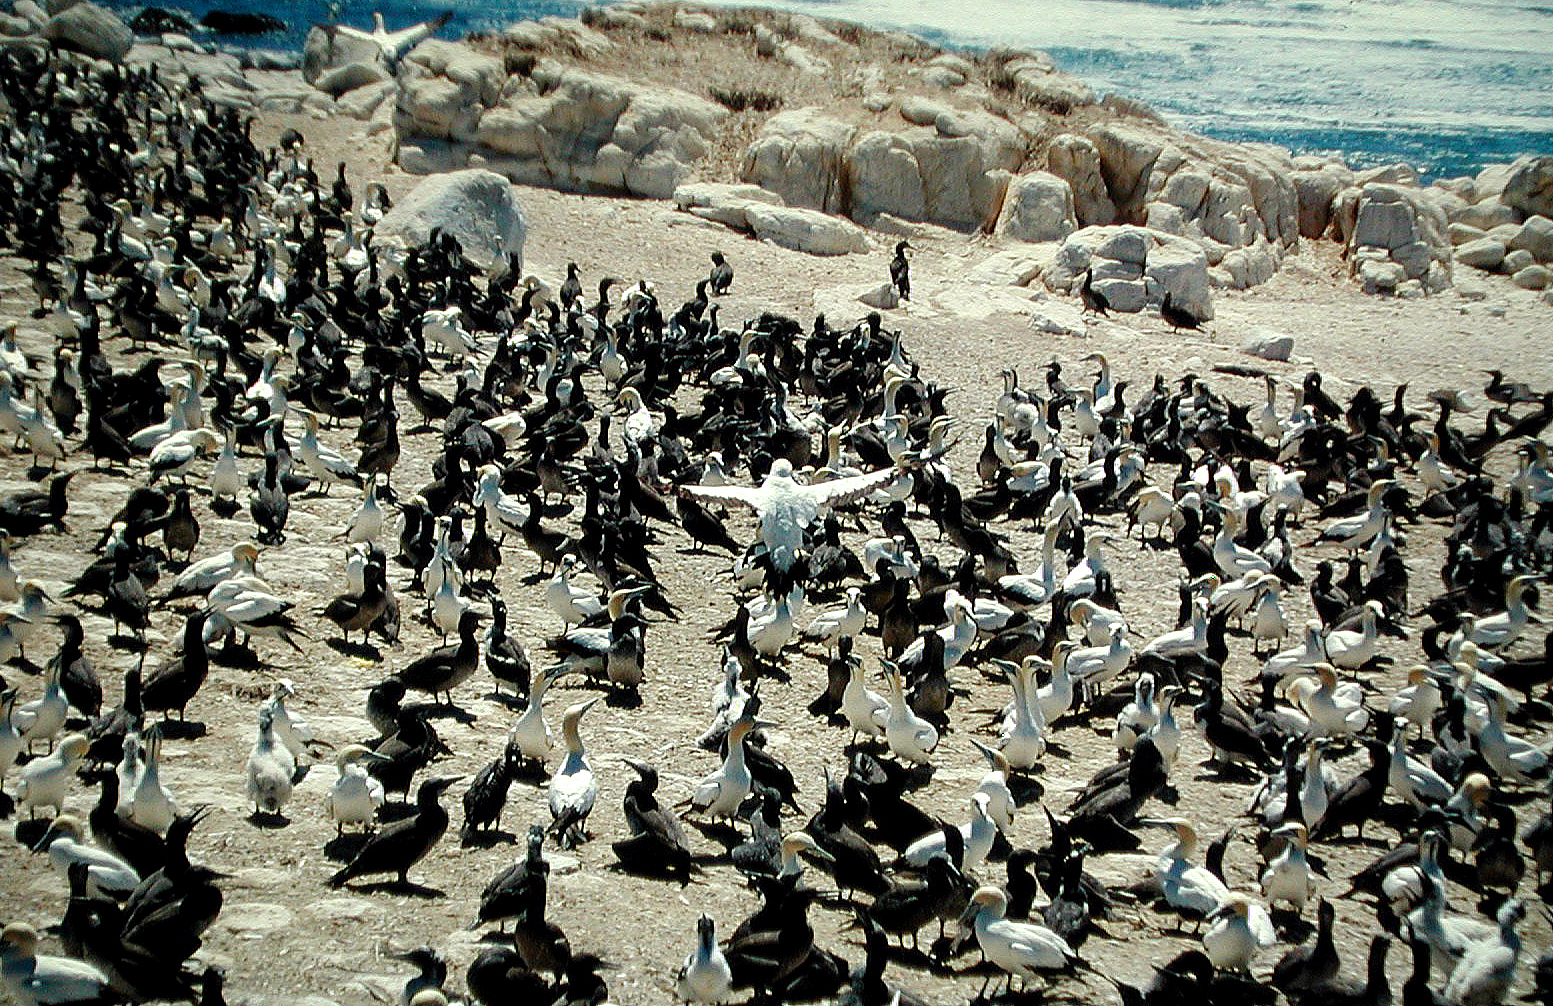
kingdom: Animalia
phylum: Chordata
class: Aves
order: Suliformes
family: Sulidae
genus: Morus
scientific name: Morus capensis
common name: Cape gannet
